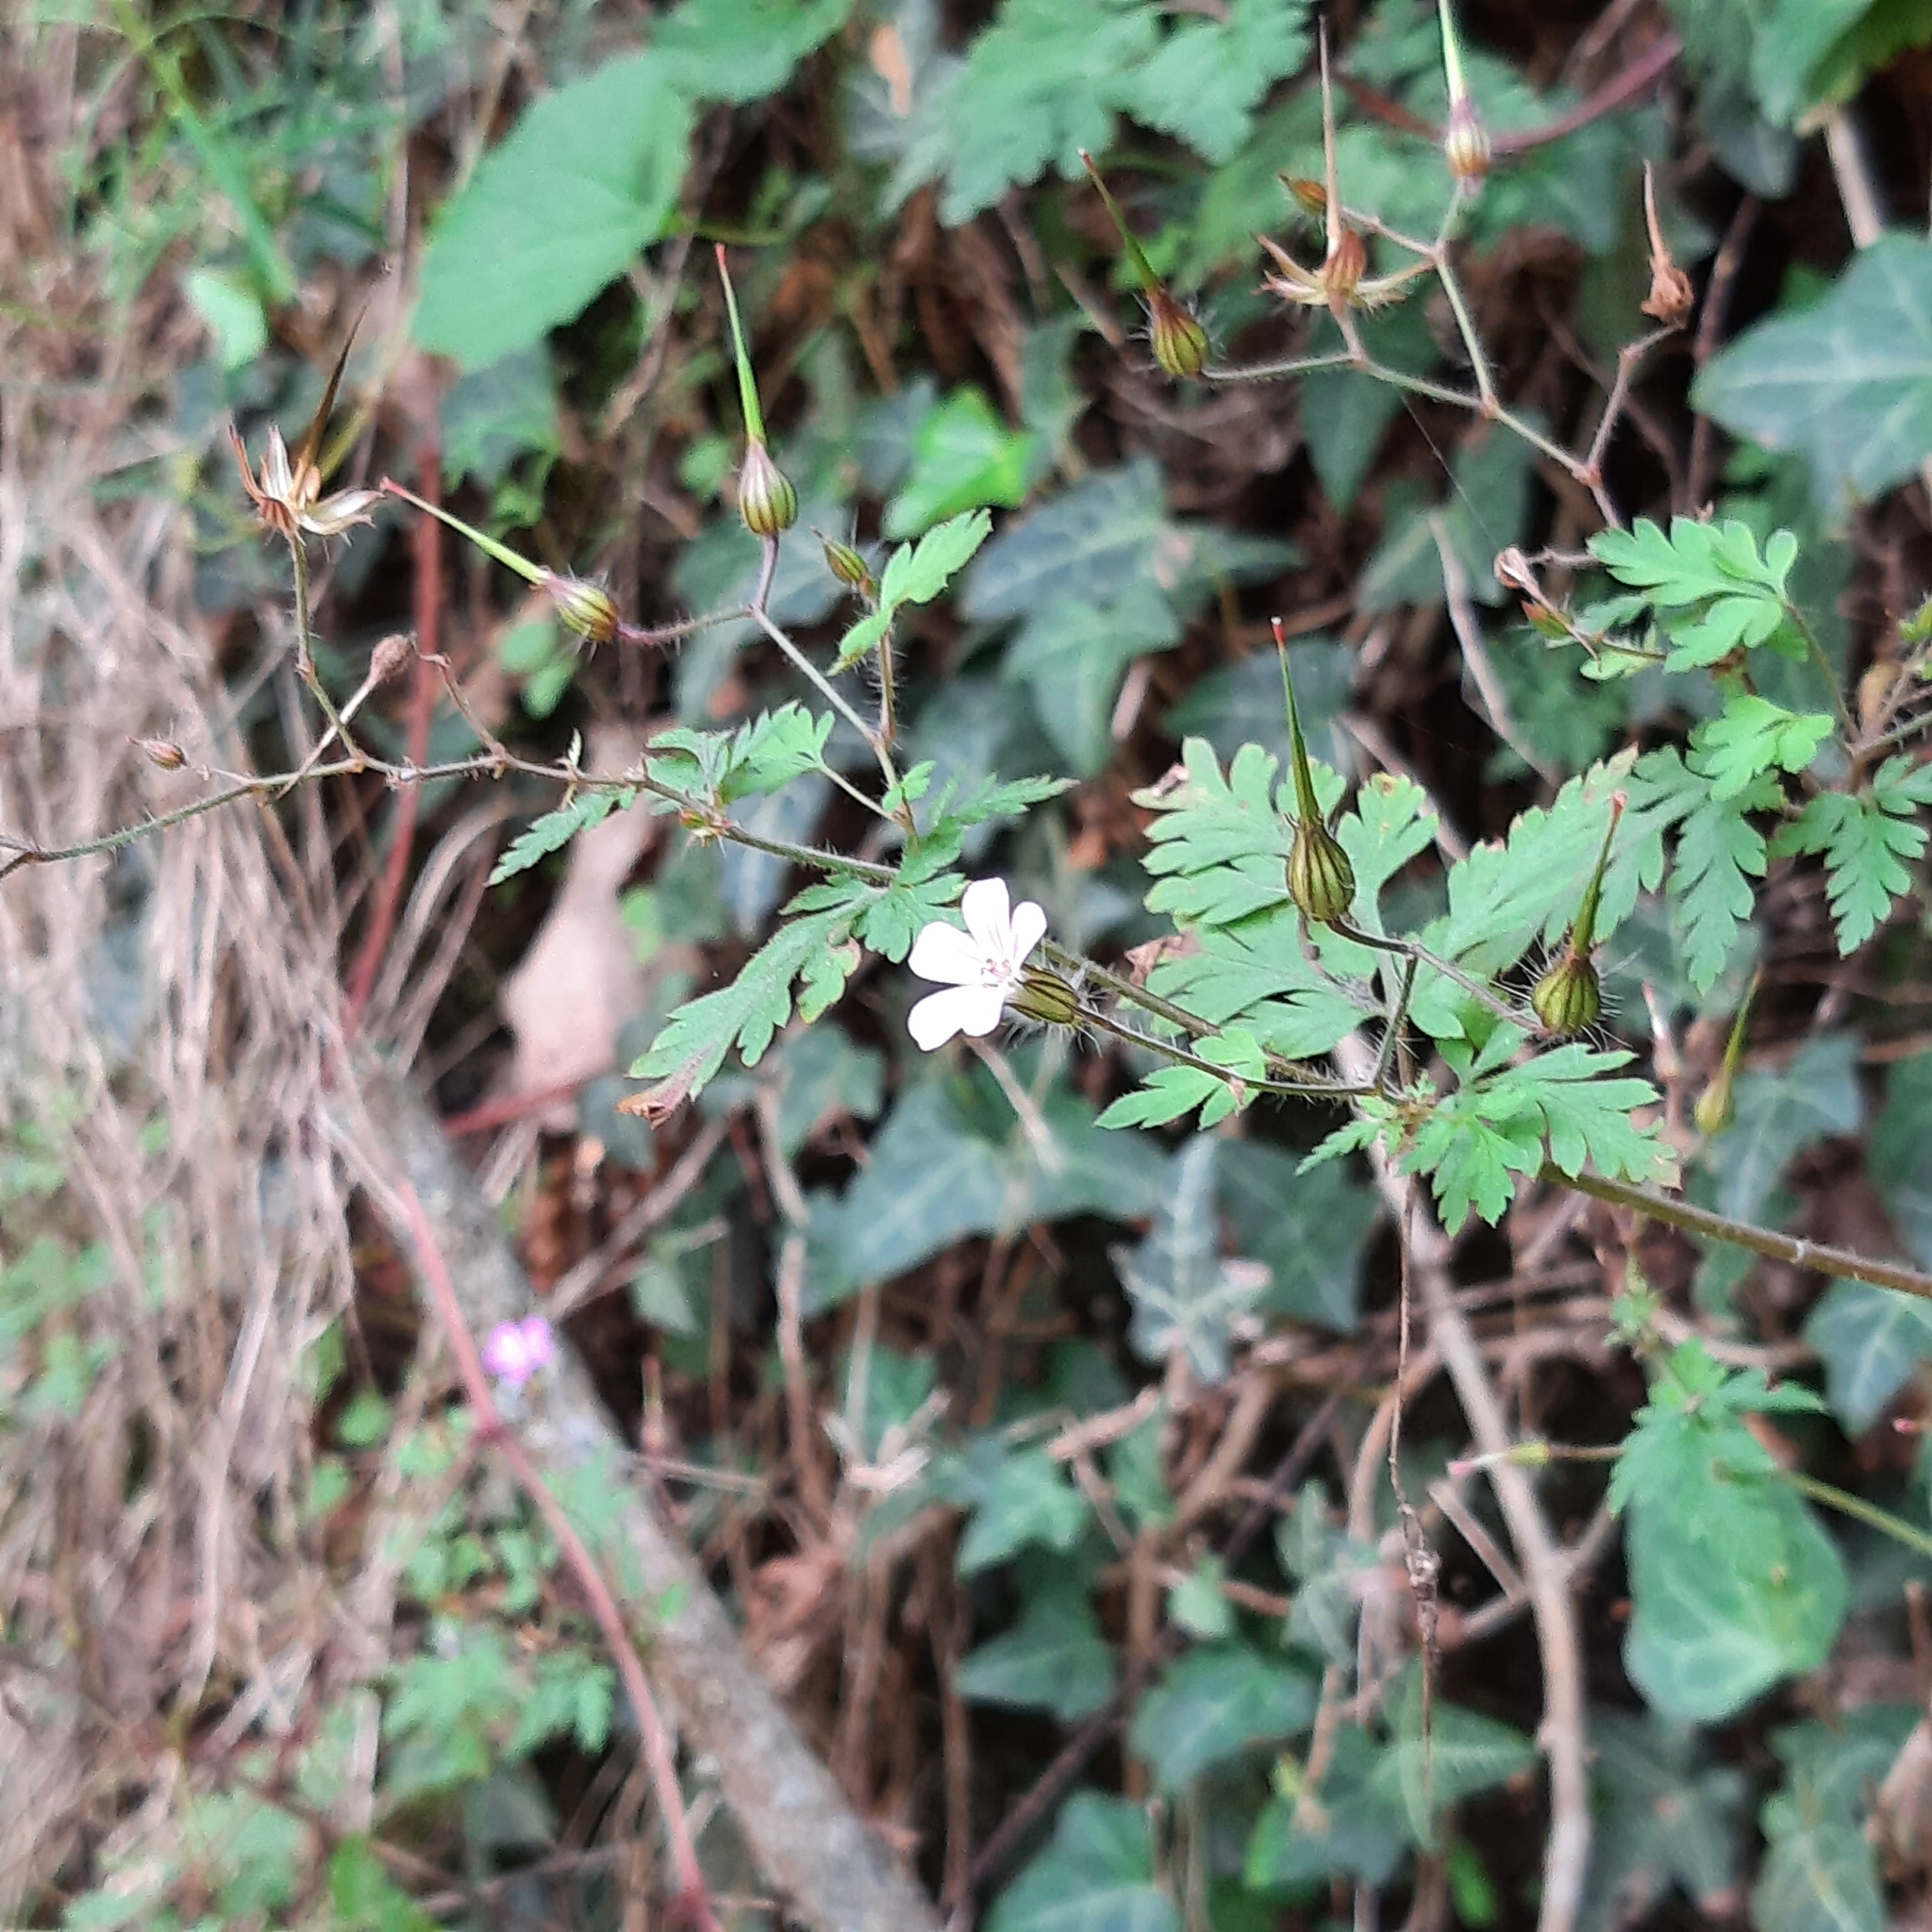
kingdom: Plantae
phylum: Tracheophyta
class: Magnoliopsida
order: Geraniales
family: Geraniaceae
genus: Geranium
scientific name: Geranium robertianum
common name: Herb-robert
